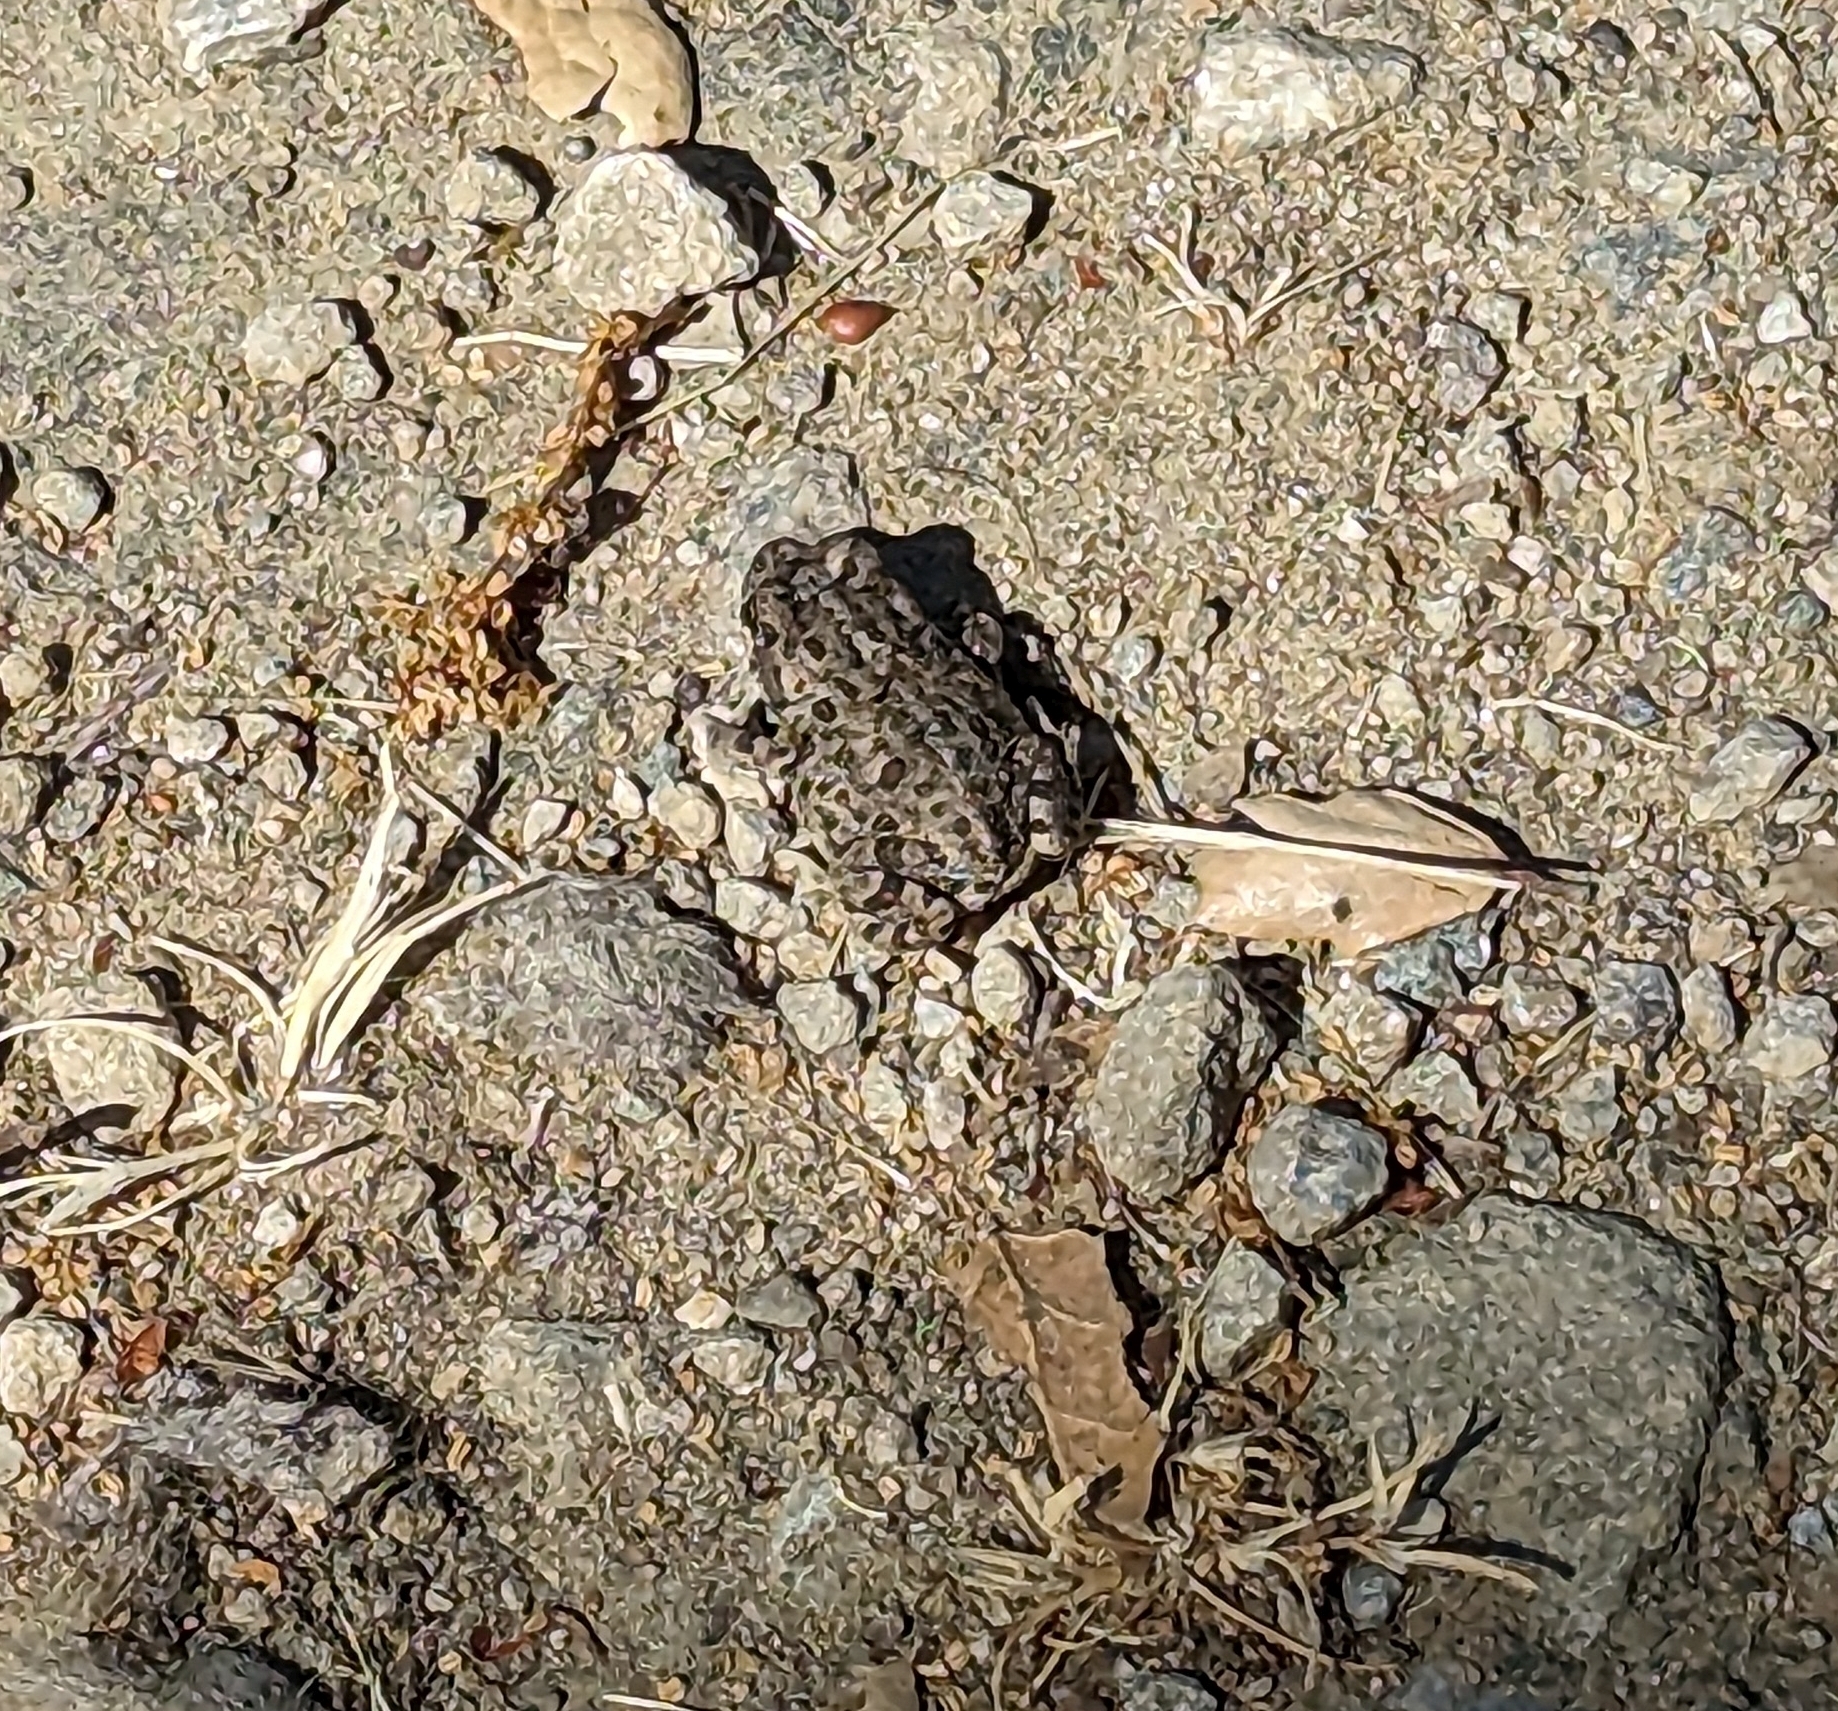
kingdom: Animalia
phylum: Chordata
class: Amphibia
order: Anura
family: Bufonidae
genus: Anaxyrus
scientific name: Anaxyrus boreas
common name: Western toad
